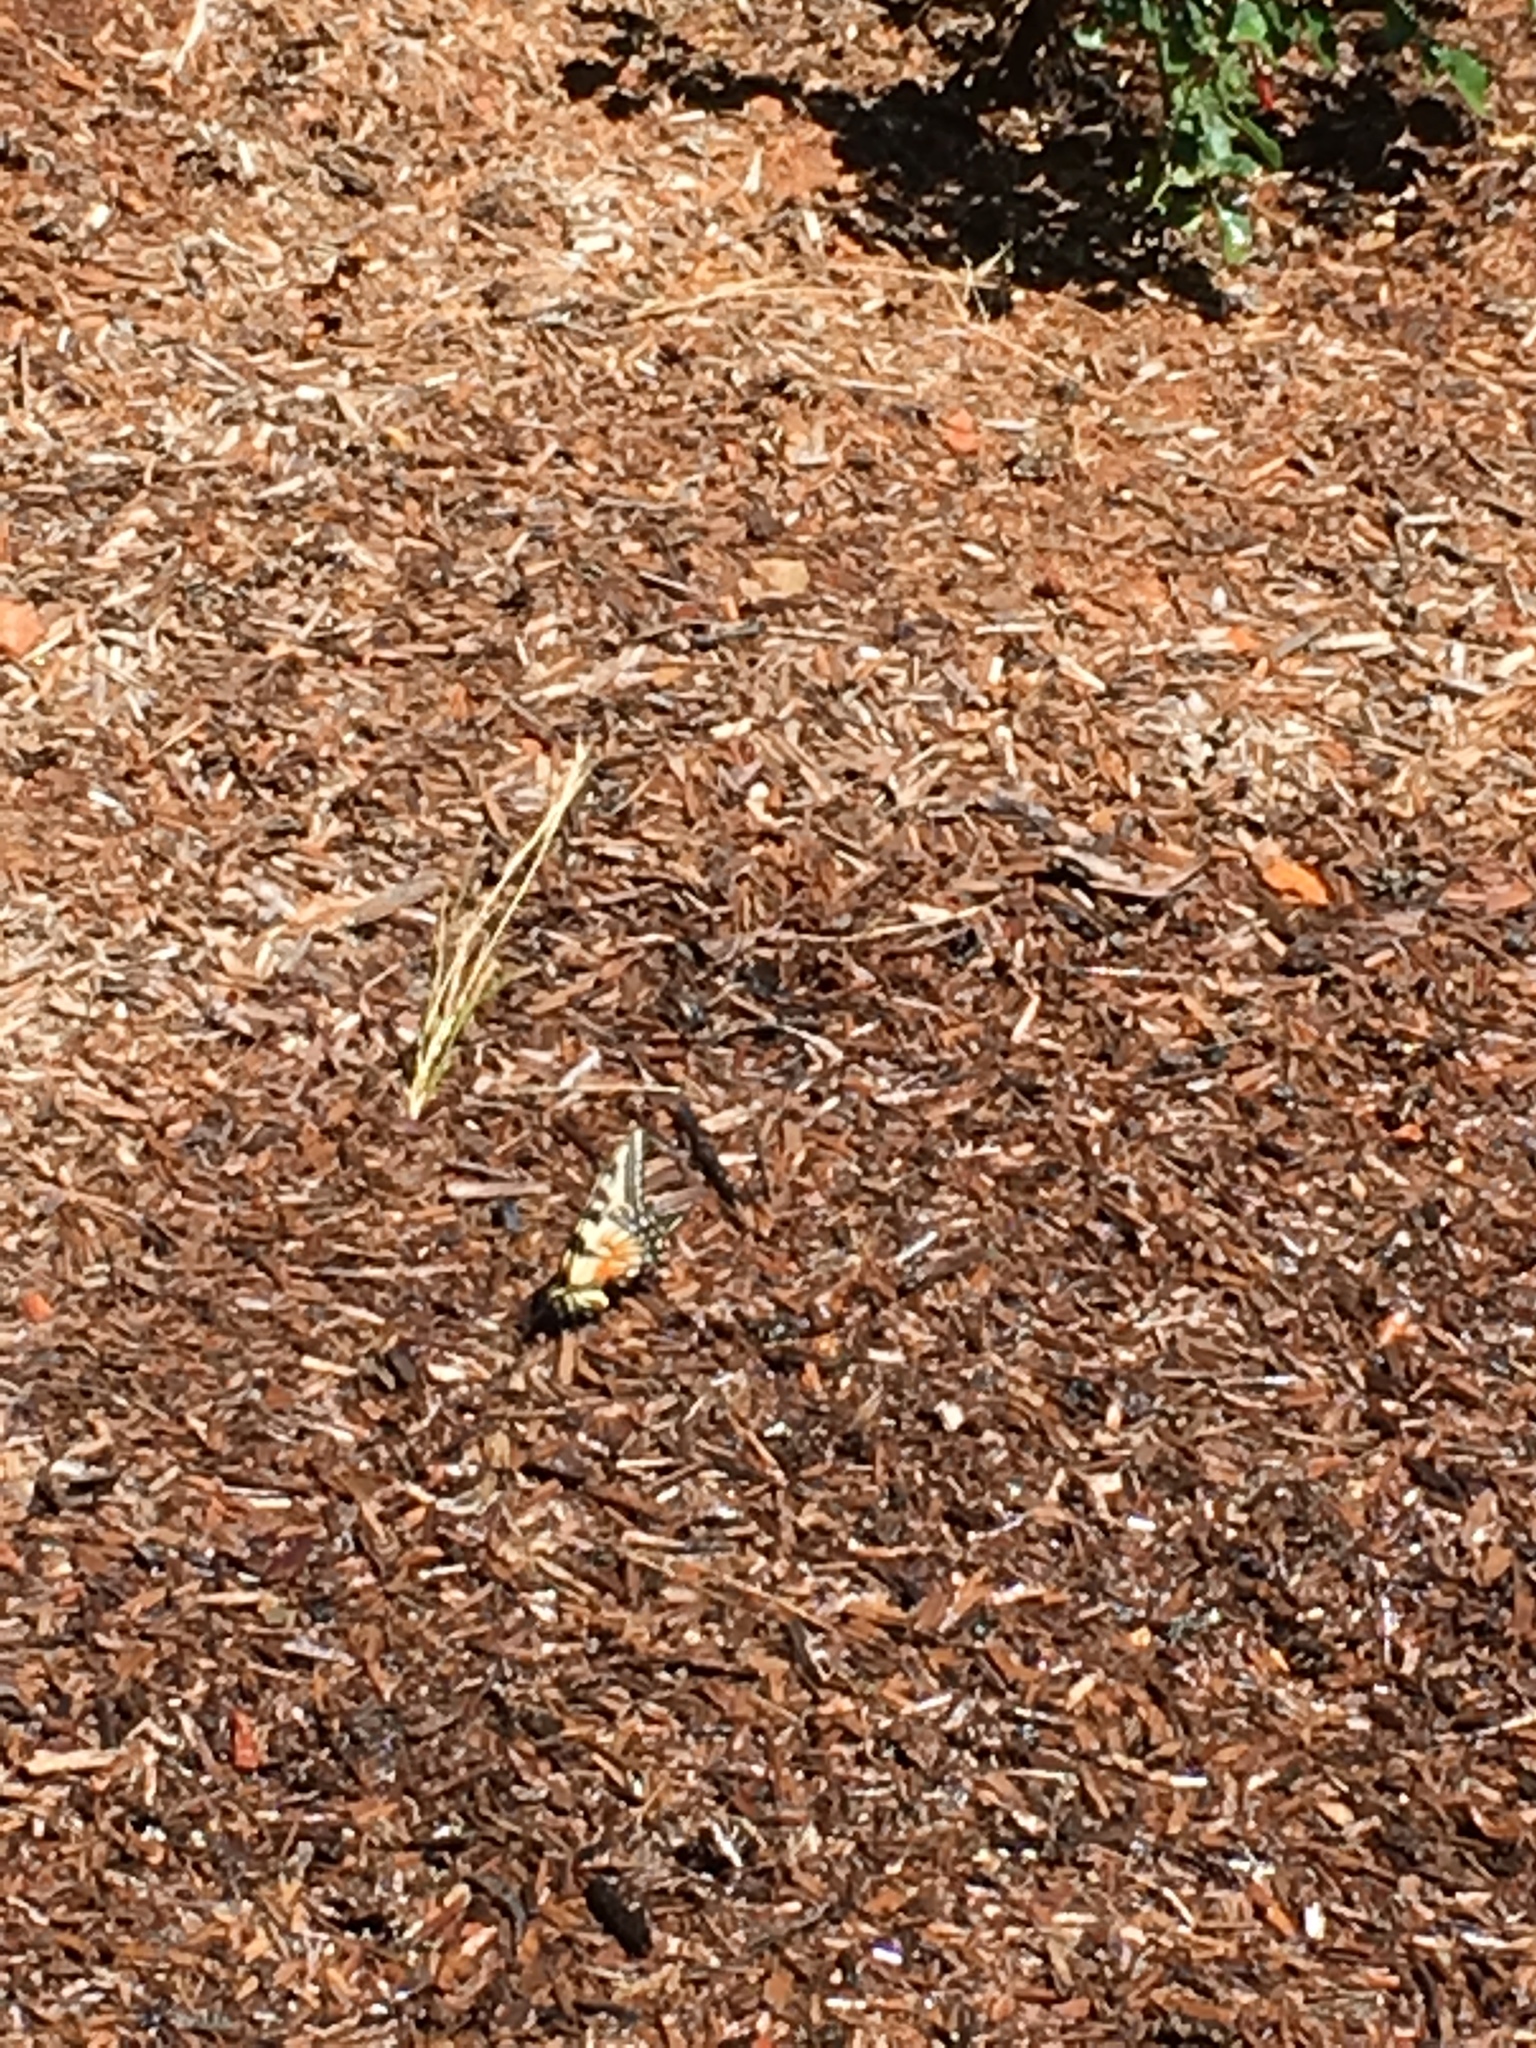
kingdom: Animalia
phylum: Arthropoda
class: Insecta
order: Lepidoptera
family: Papilionidae
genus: Papilio
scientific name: Papilio rutulus
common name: Western tiger swallowtail
